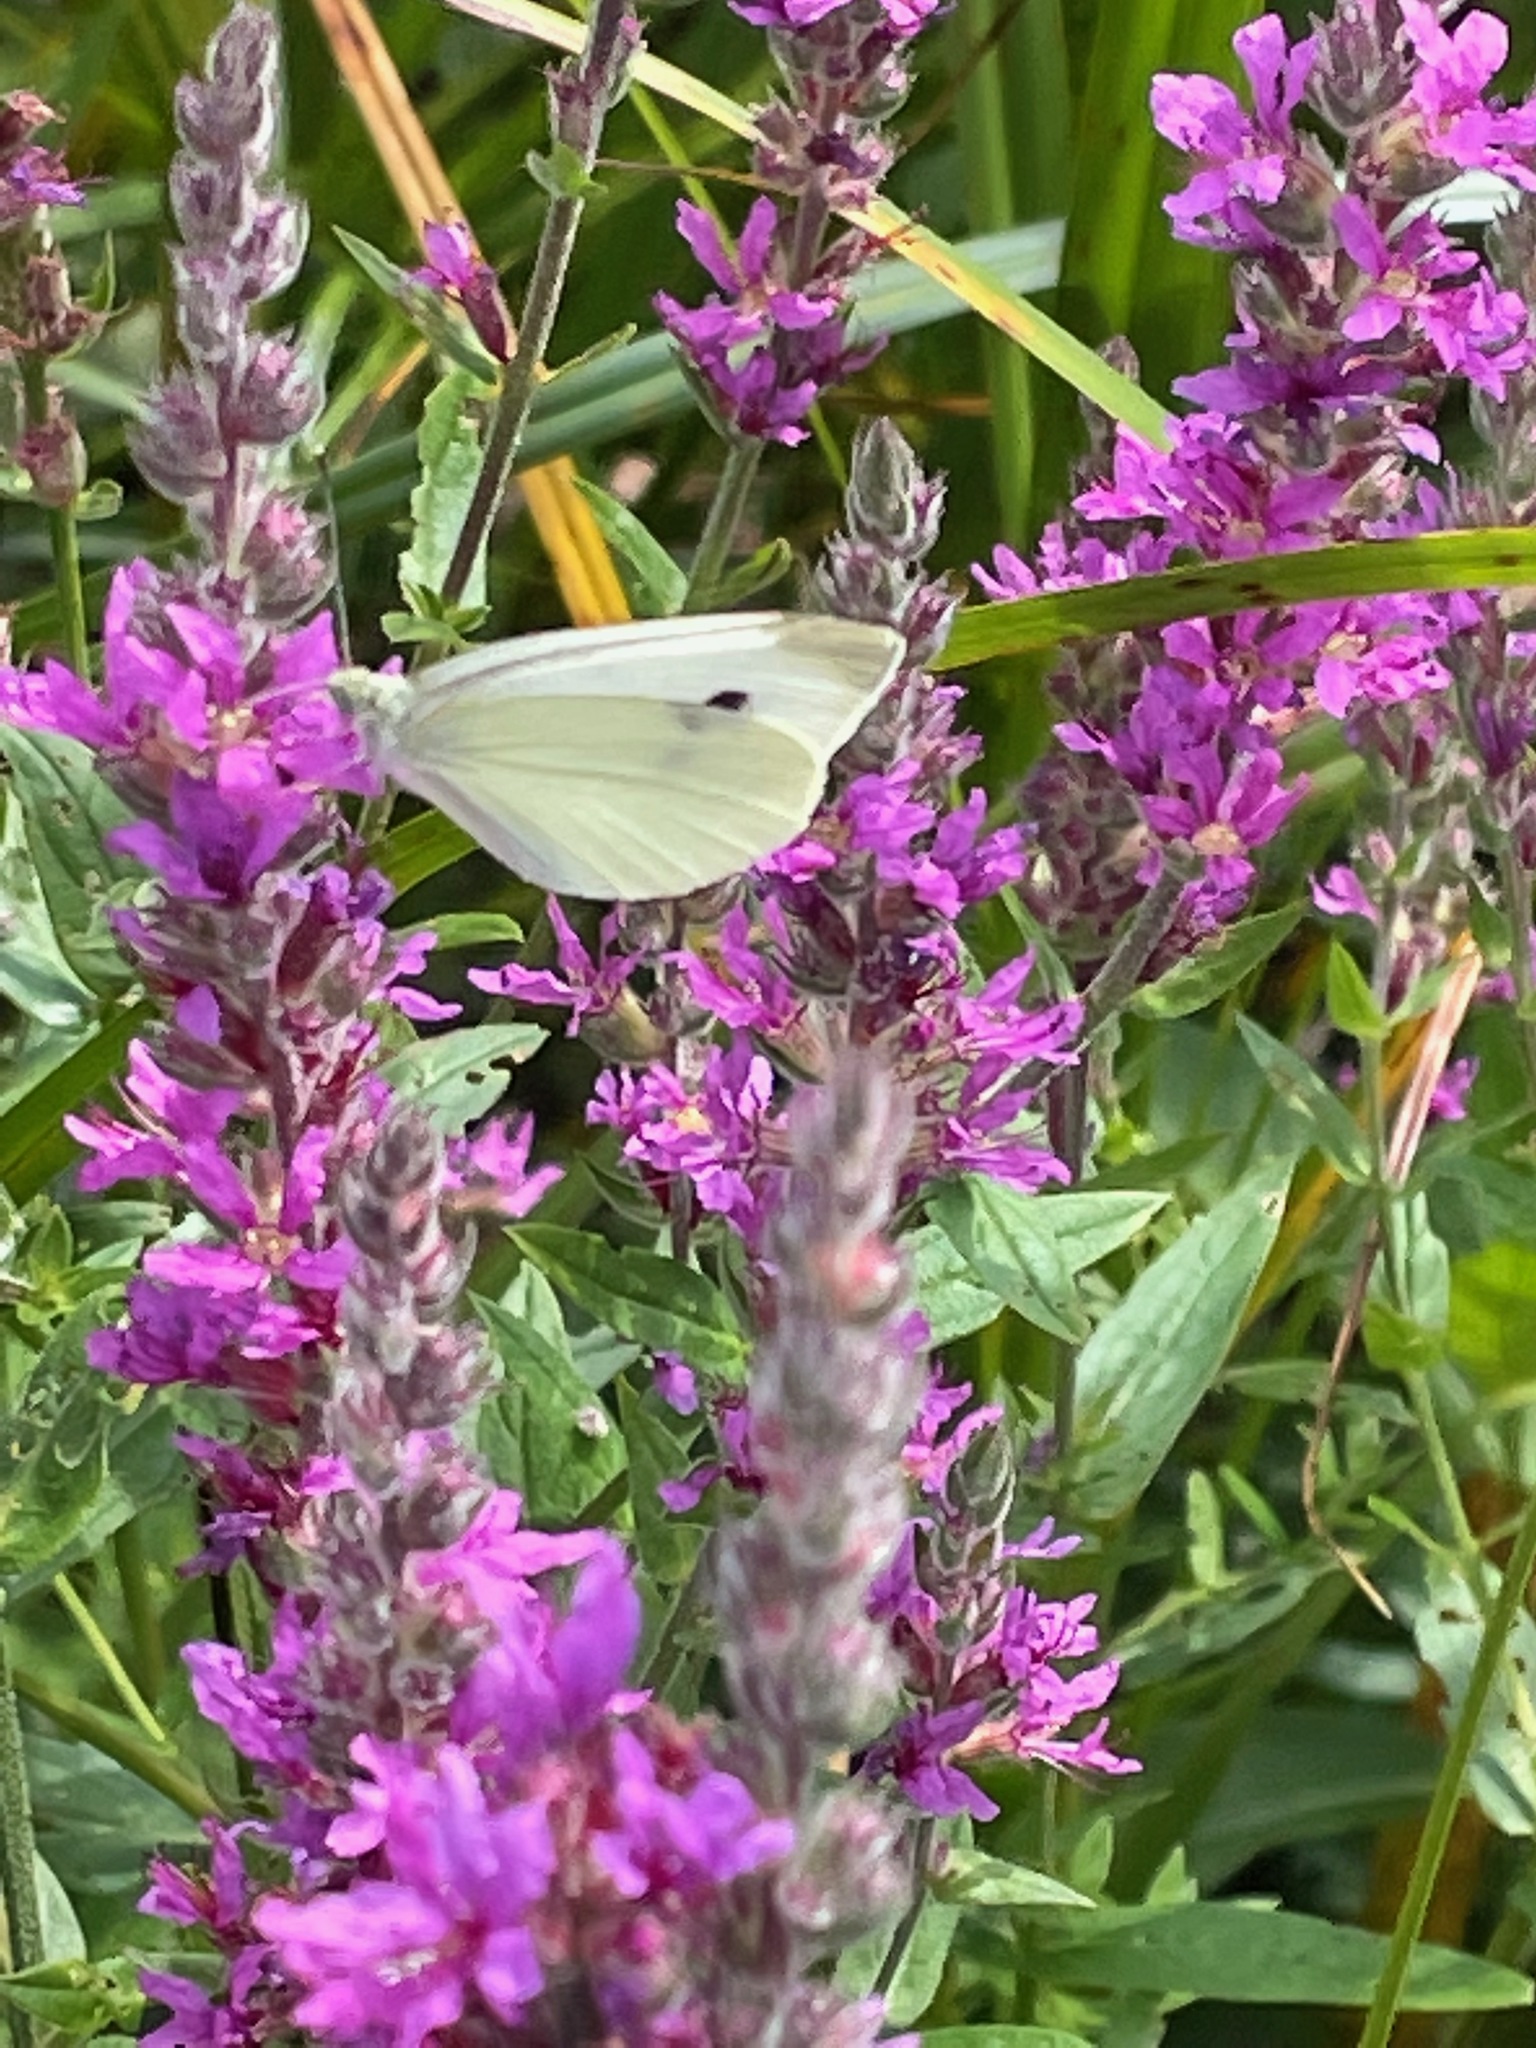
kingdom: Animalia
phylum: Arthropoda
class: Insecta
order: Lepidoptera
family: Pieridae
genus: Pieris
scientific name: Pieris rapae
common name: Small white
